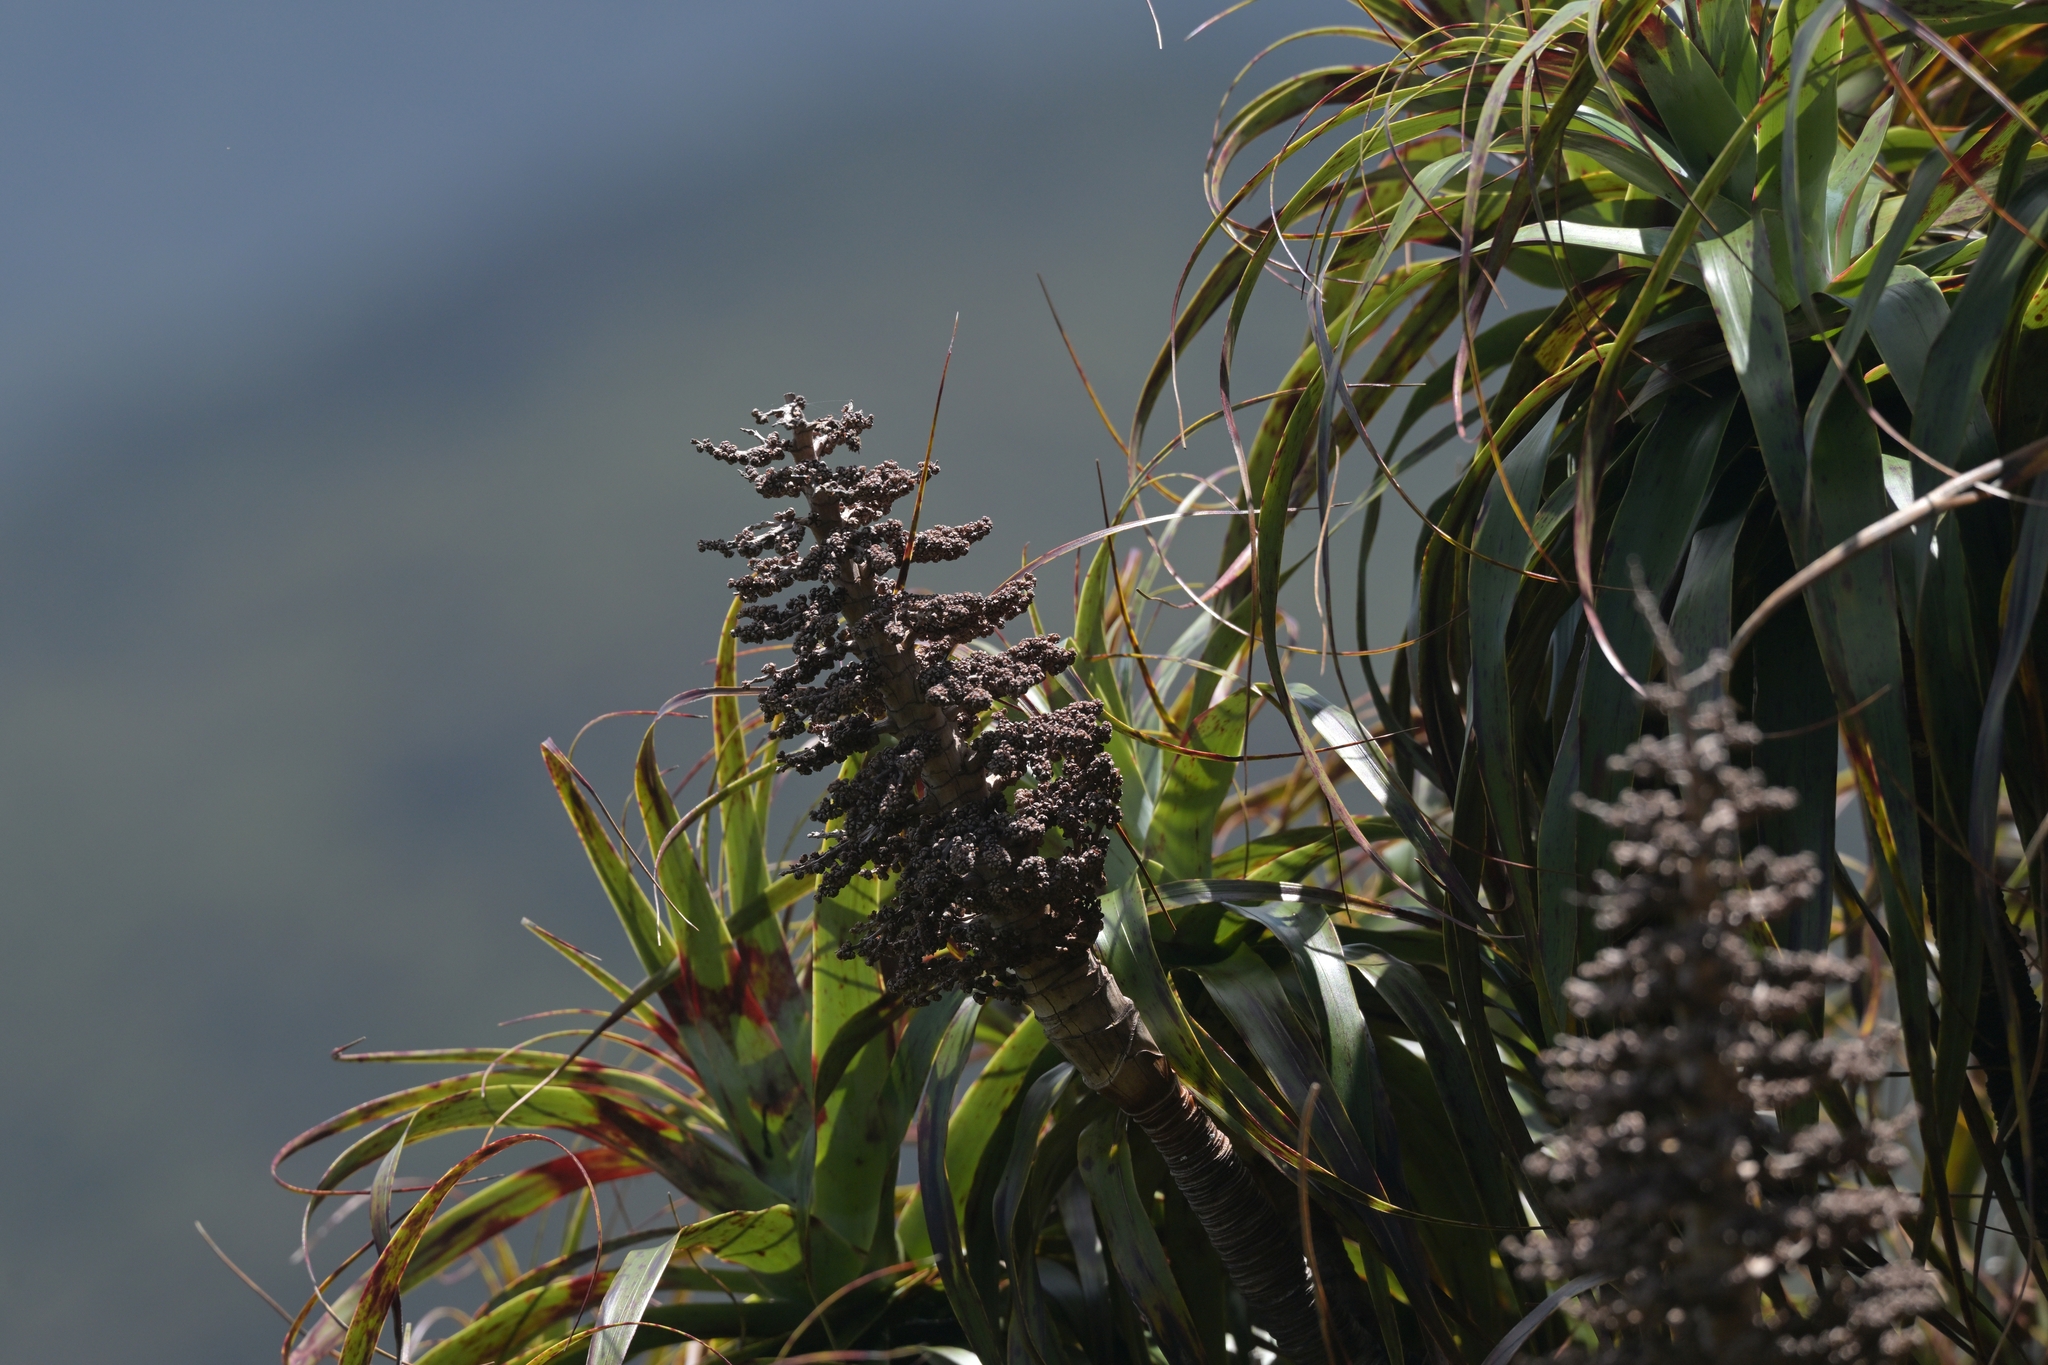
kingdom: Plantae
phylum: Tracheophyta
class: Magnoliopsida
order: Ericales
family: Ericaceae
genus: Dracophyllum
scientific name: Dracophyllum traversii
